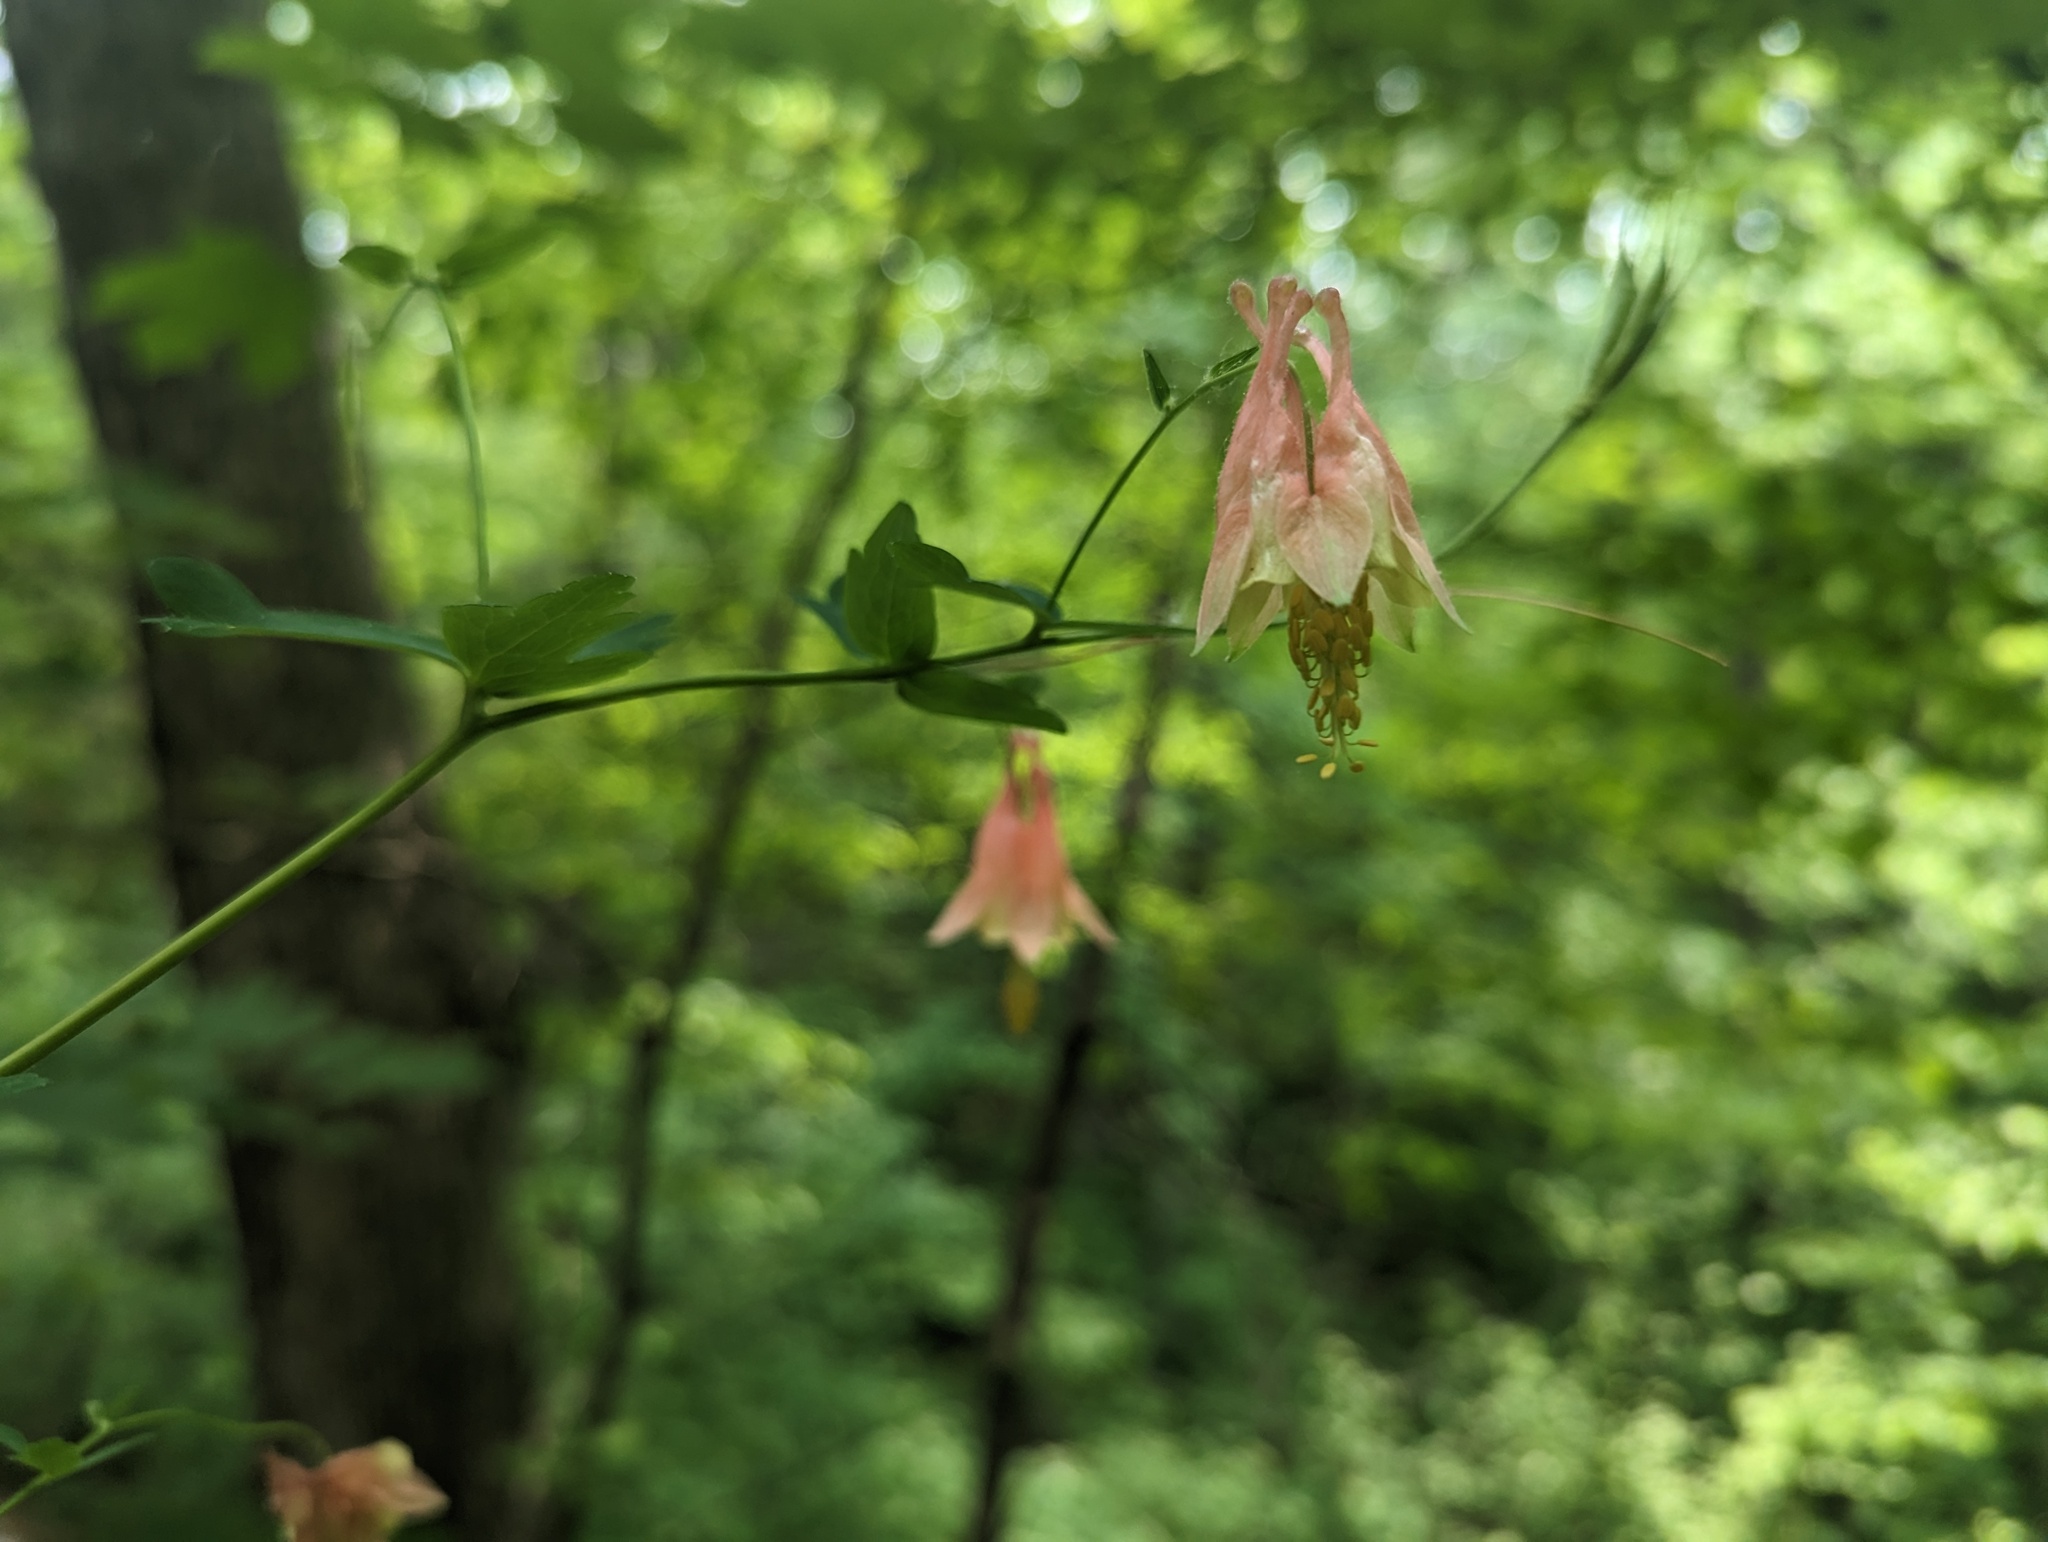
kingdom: Plantae
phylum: Tracheophyta
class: Magnoliopsida
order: Ranunculales
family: Ranunculaceae
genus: Aquilegia
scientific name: Aquilegia canadensis
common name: American columbine
